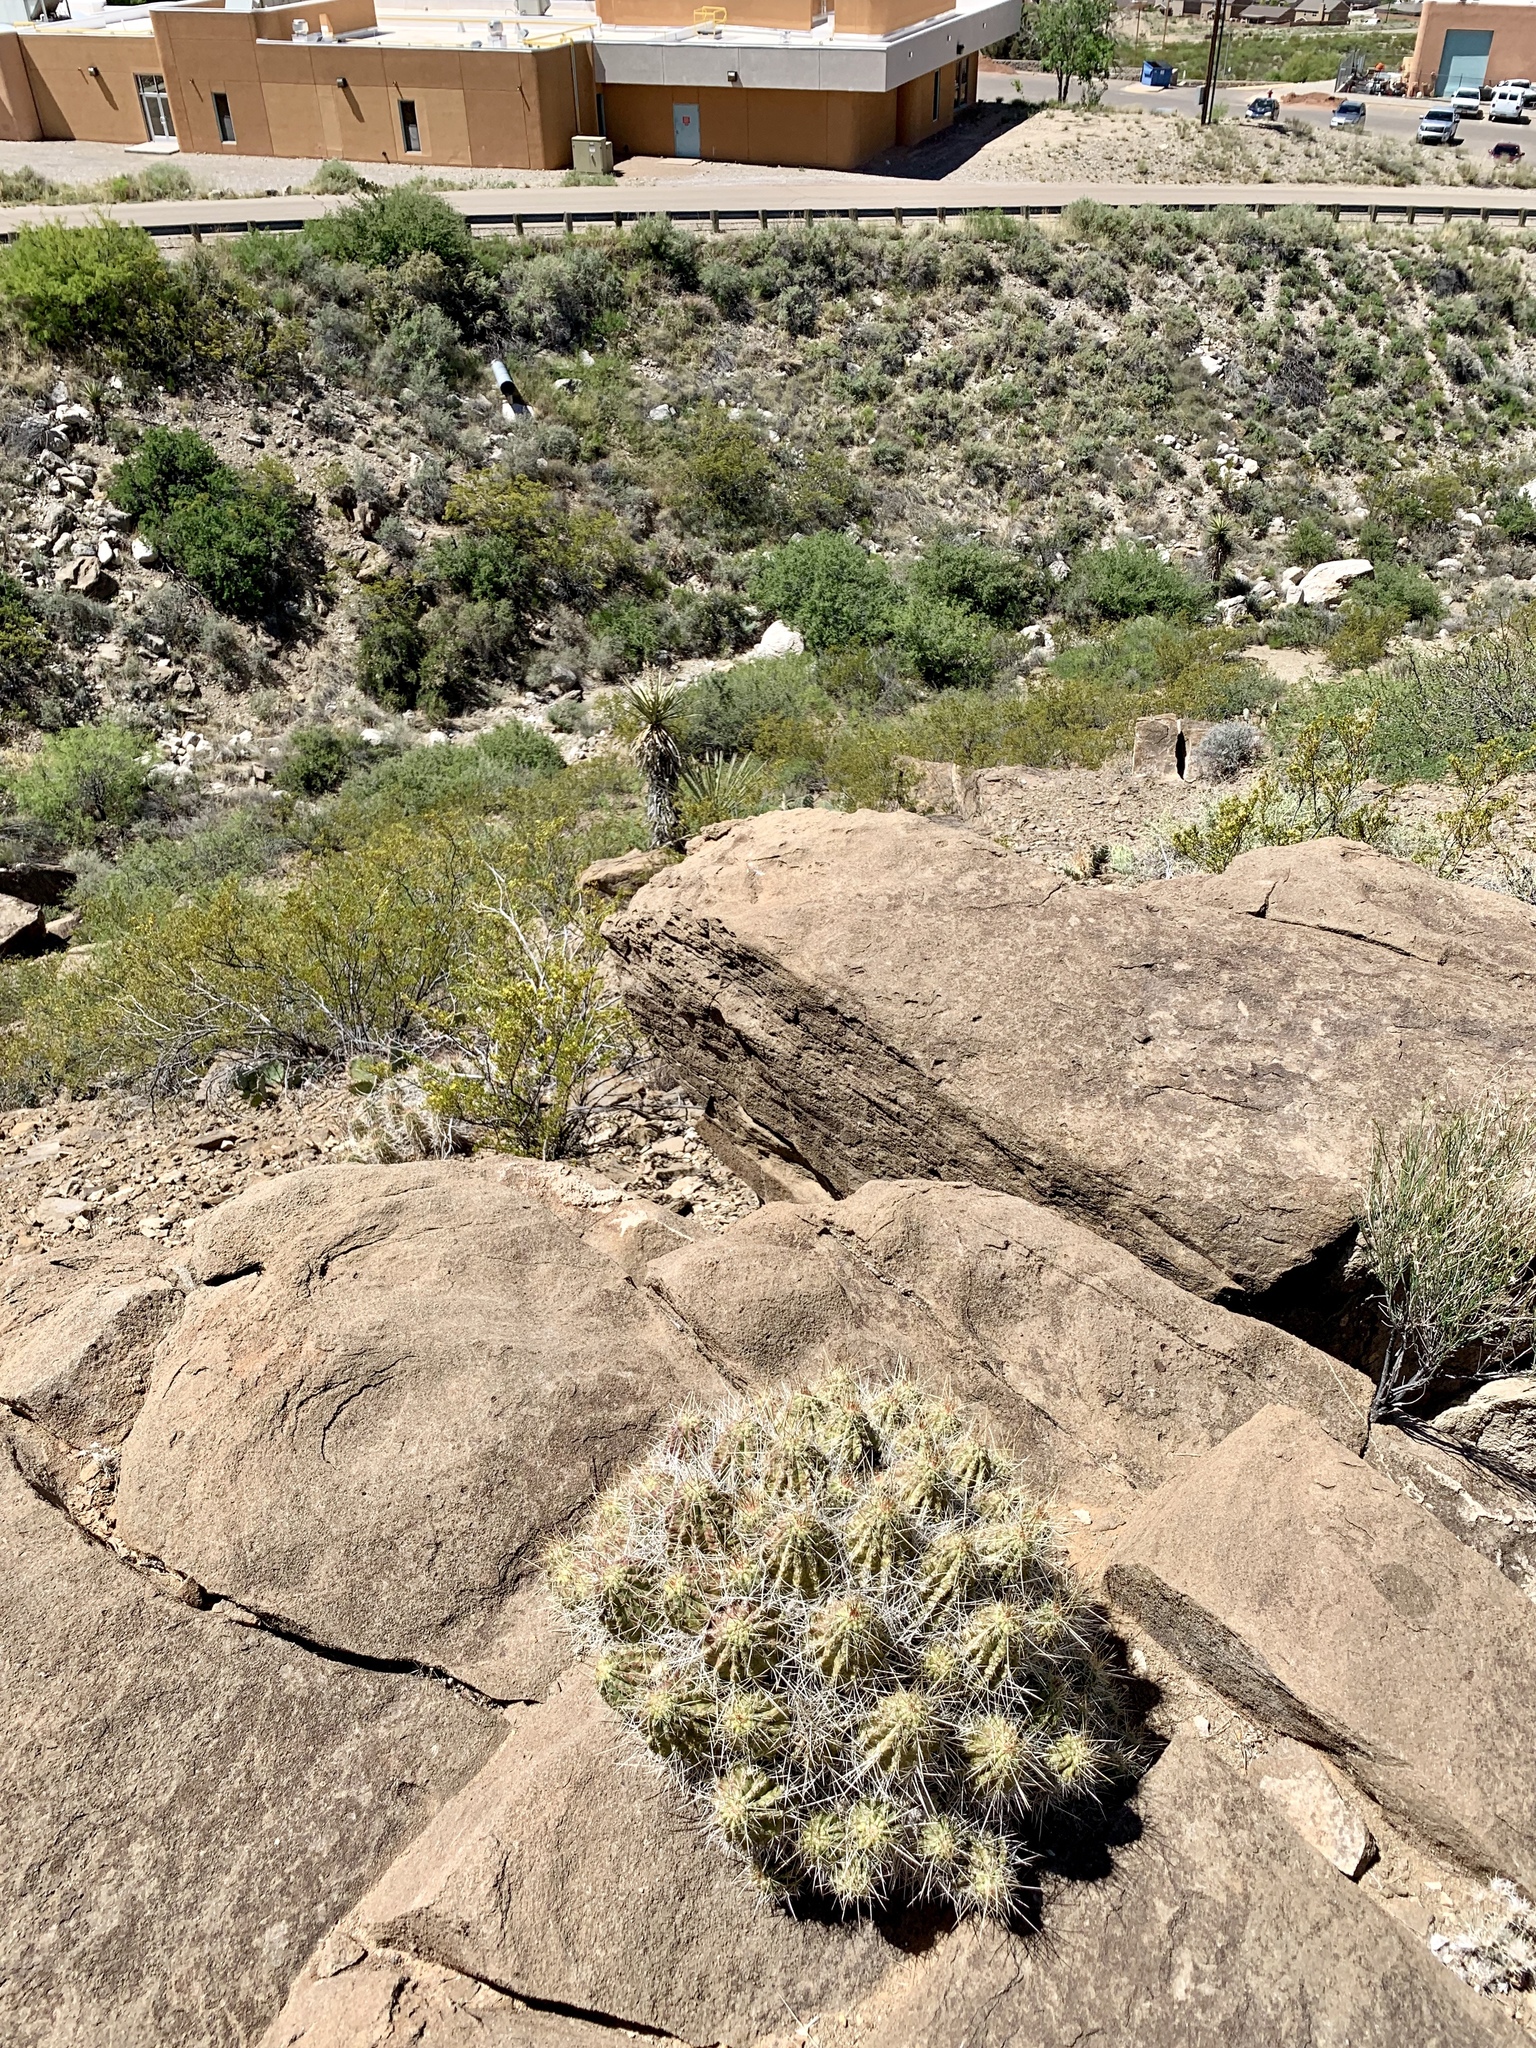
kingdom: Plantae
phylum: Tracheophyta
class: Magnoliopsida
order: Caryophyllales
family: Cactaceae
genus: Echinocereus
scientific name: Echinocereus stramineus
